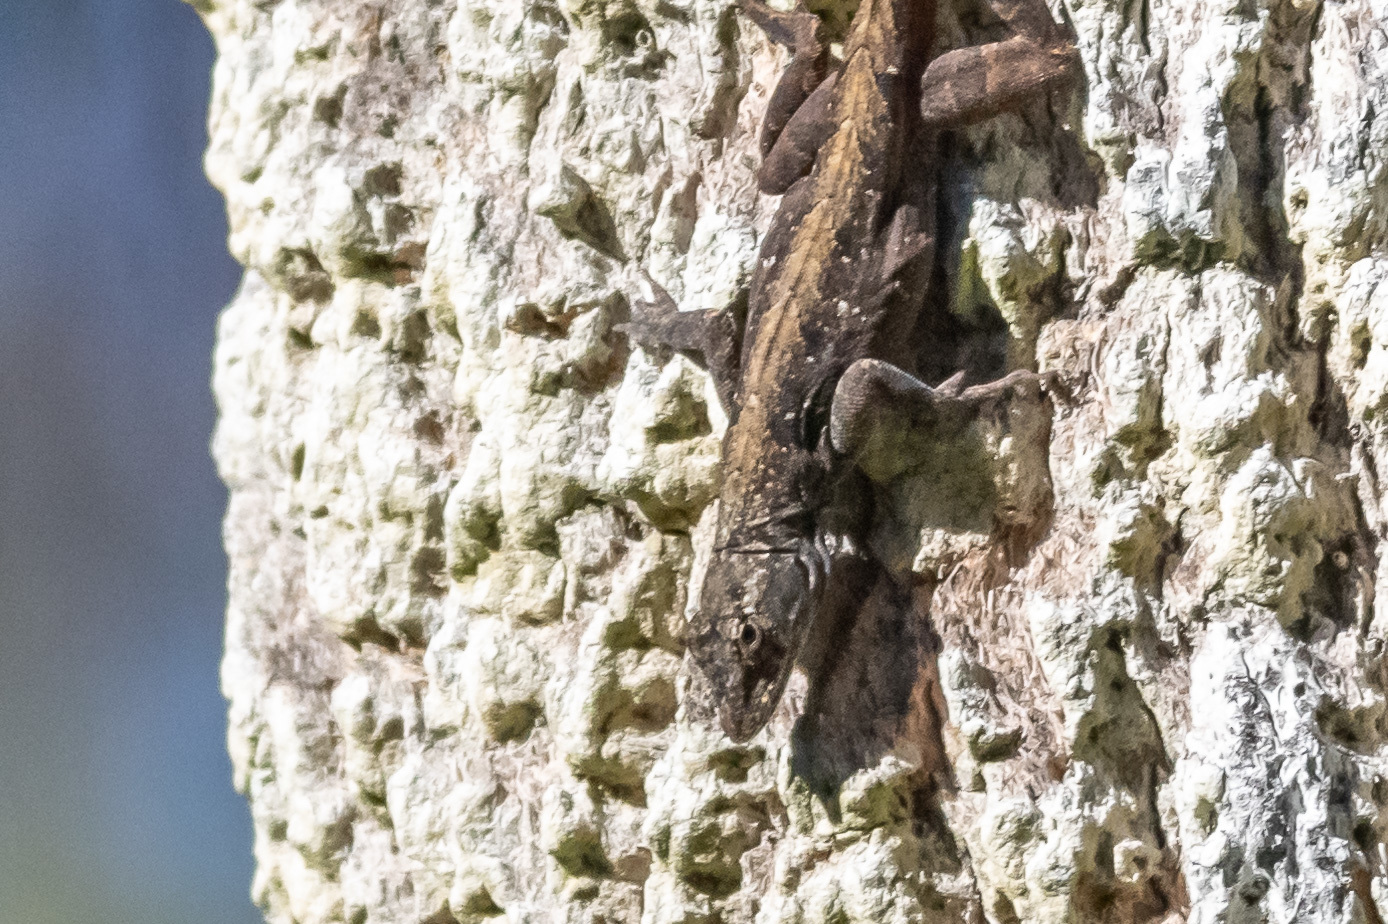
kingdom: Animalia
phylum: Chordata
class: Squamata
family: Dactyloidae
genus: Anolis
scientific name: Anolis sagrei
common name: Brown anole
